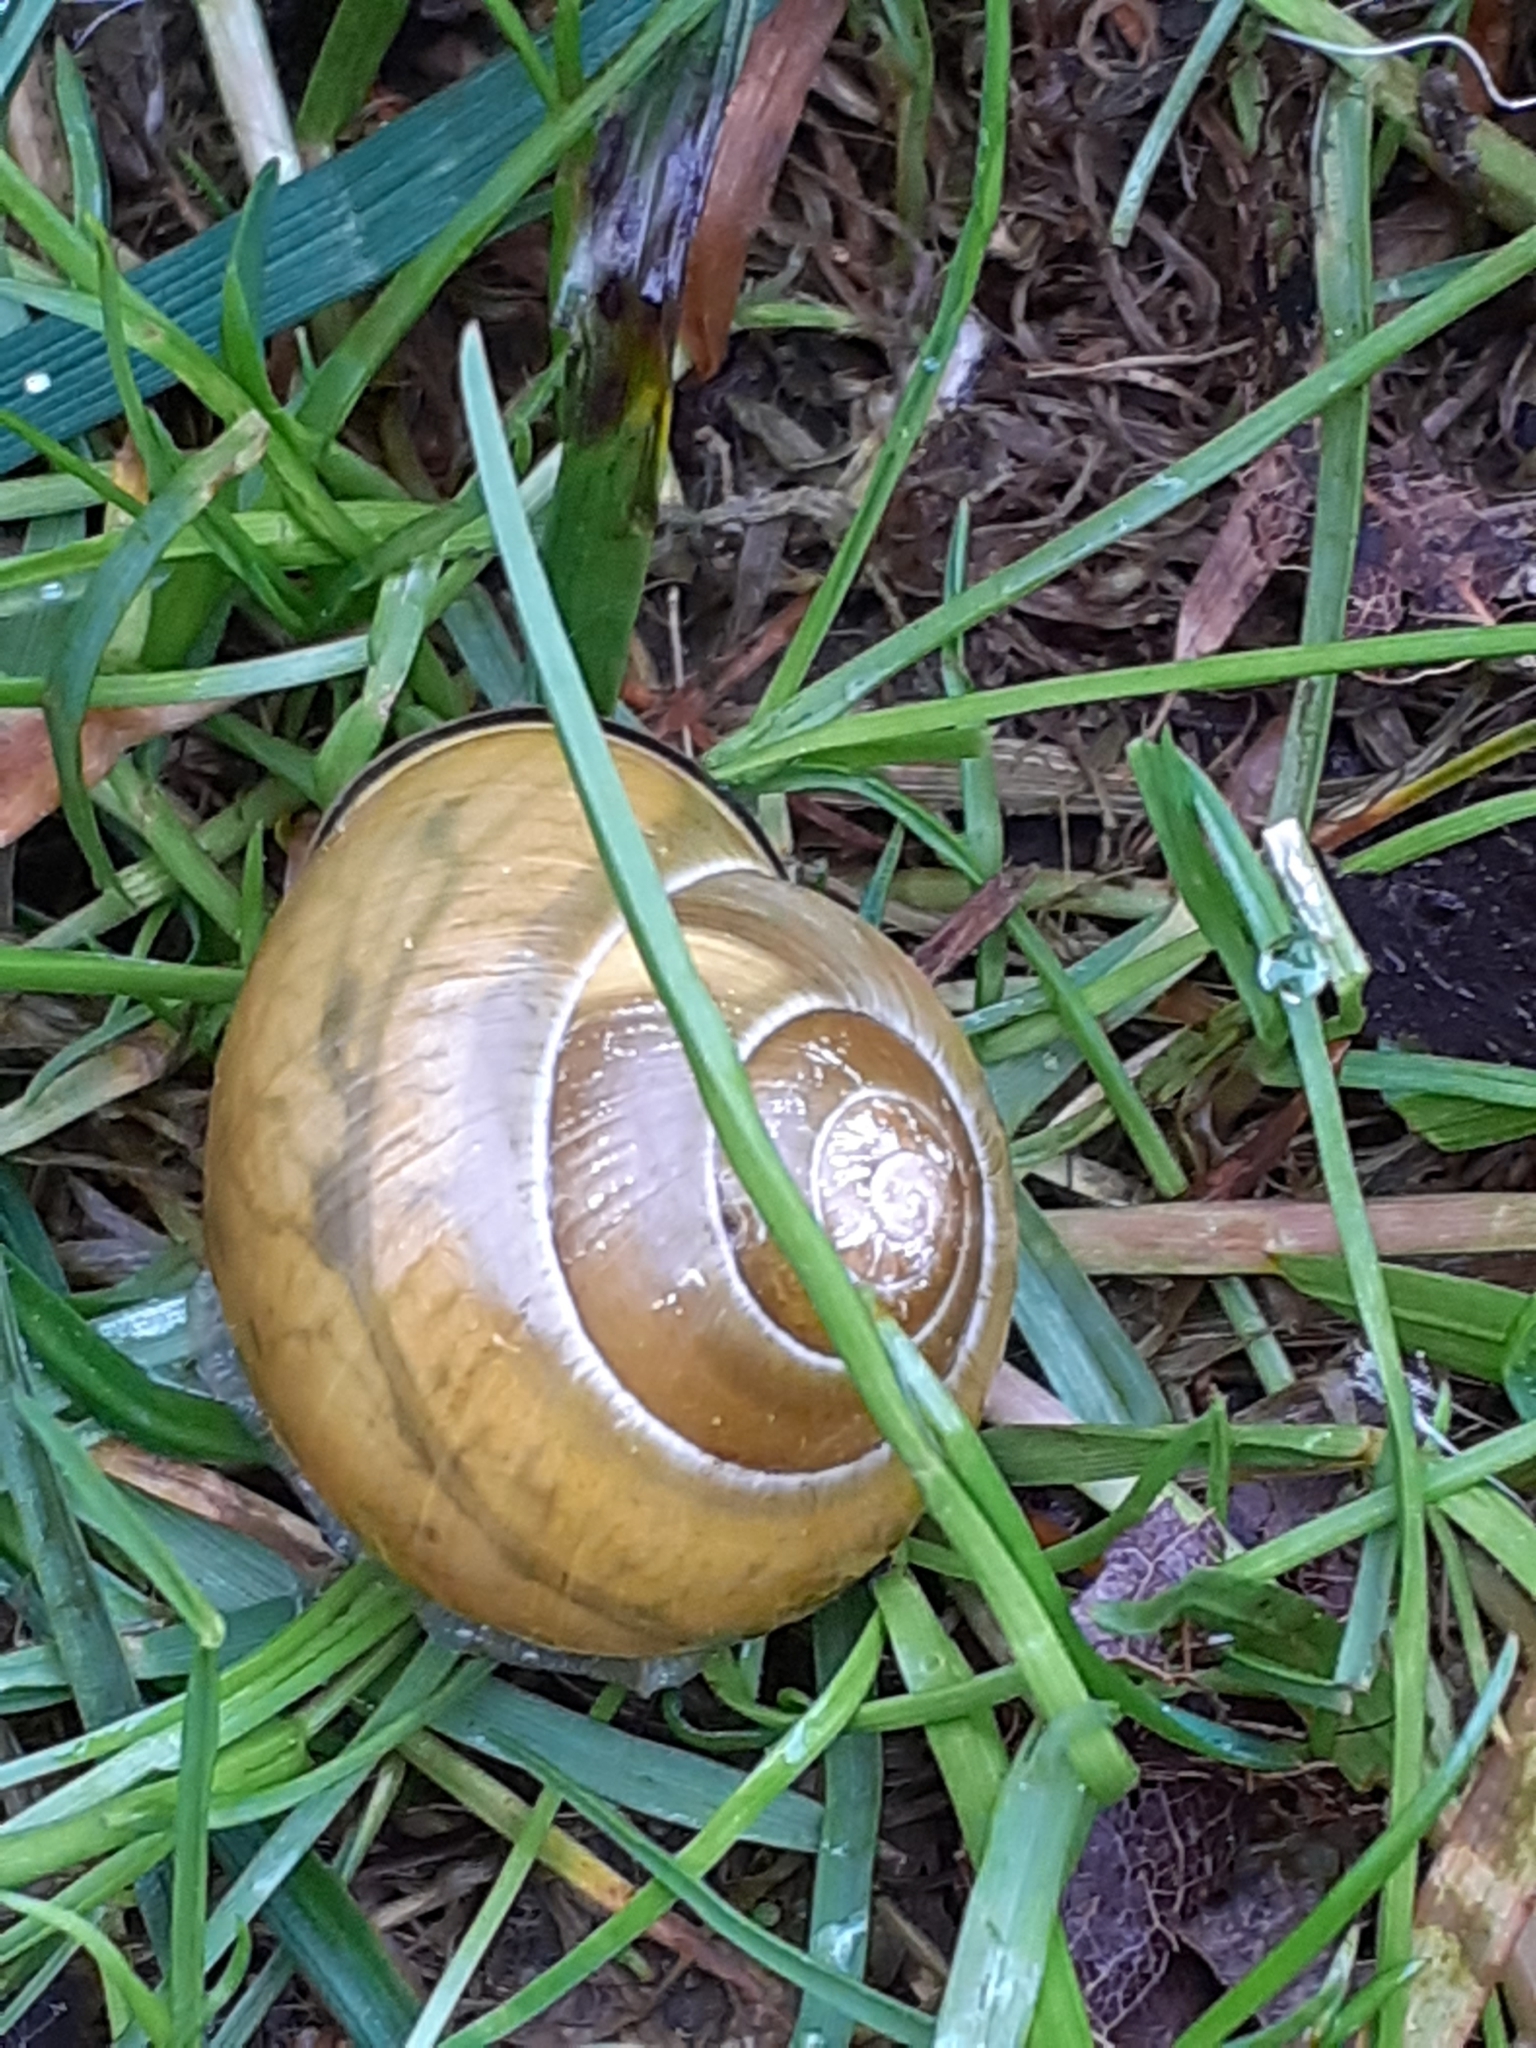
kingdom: Animalia
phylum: Mollusca
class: Gastropoda
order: Stylommatophora
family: Helicidae
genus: Cepaea
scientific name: Cepaea nemoralis
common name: Grovesnail
